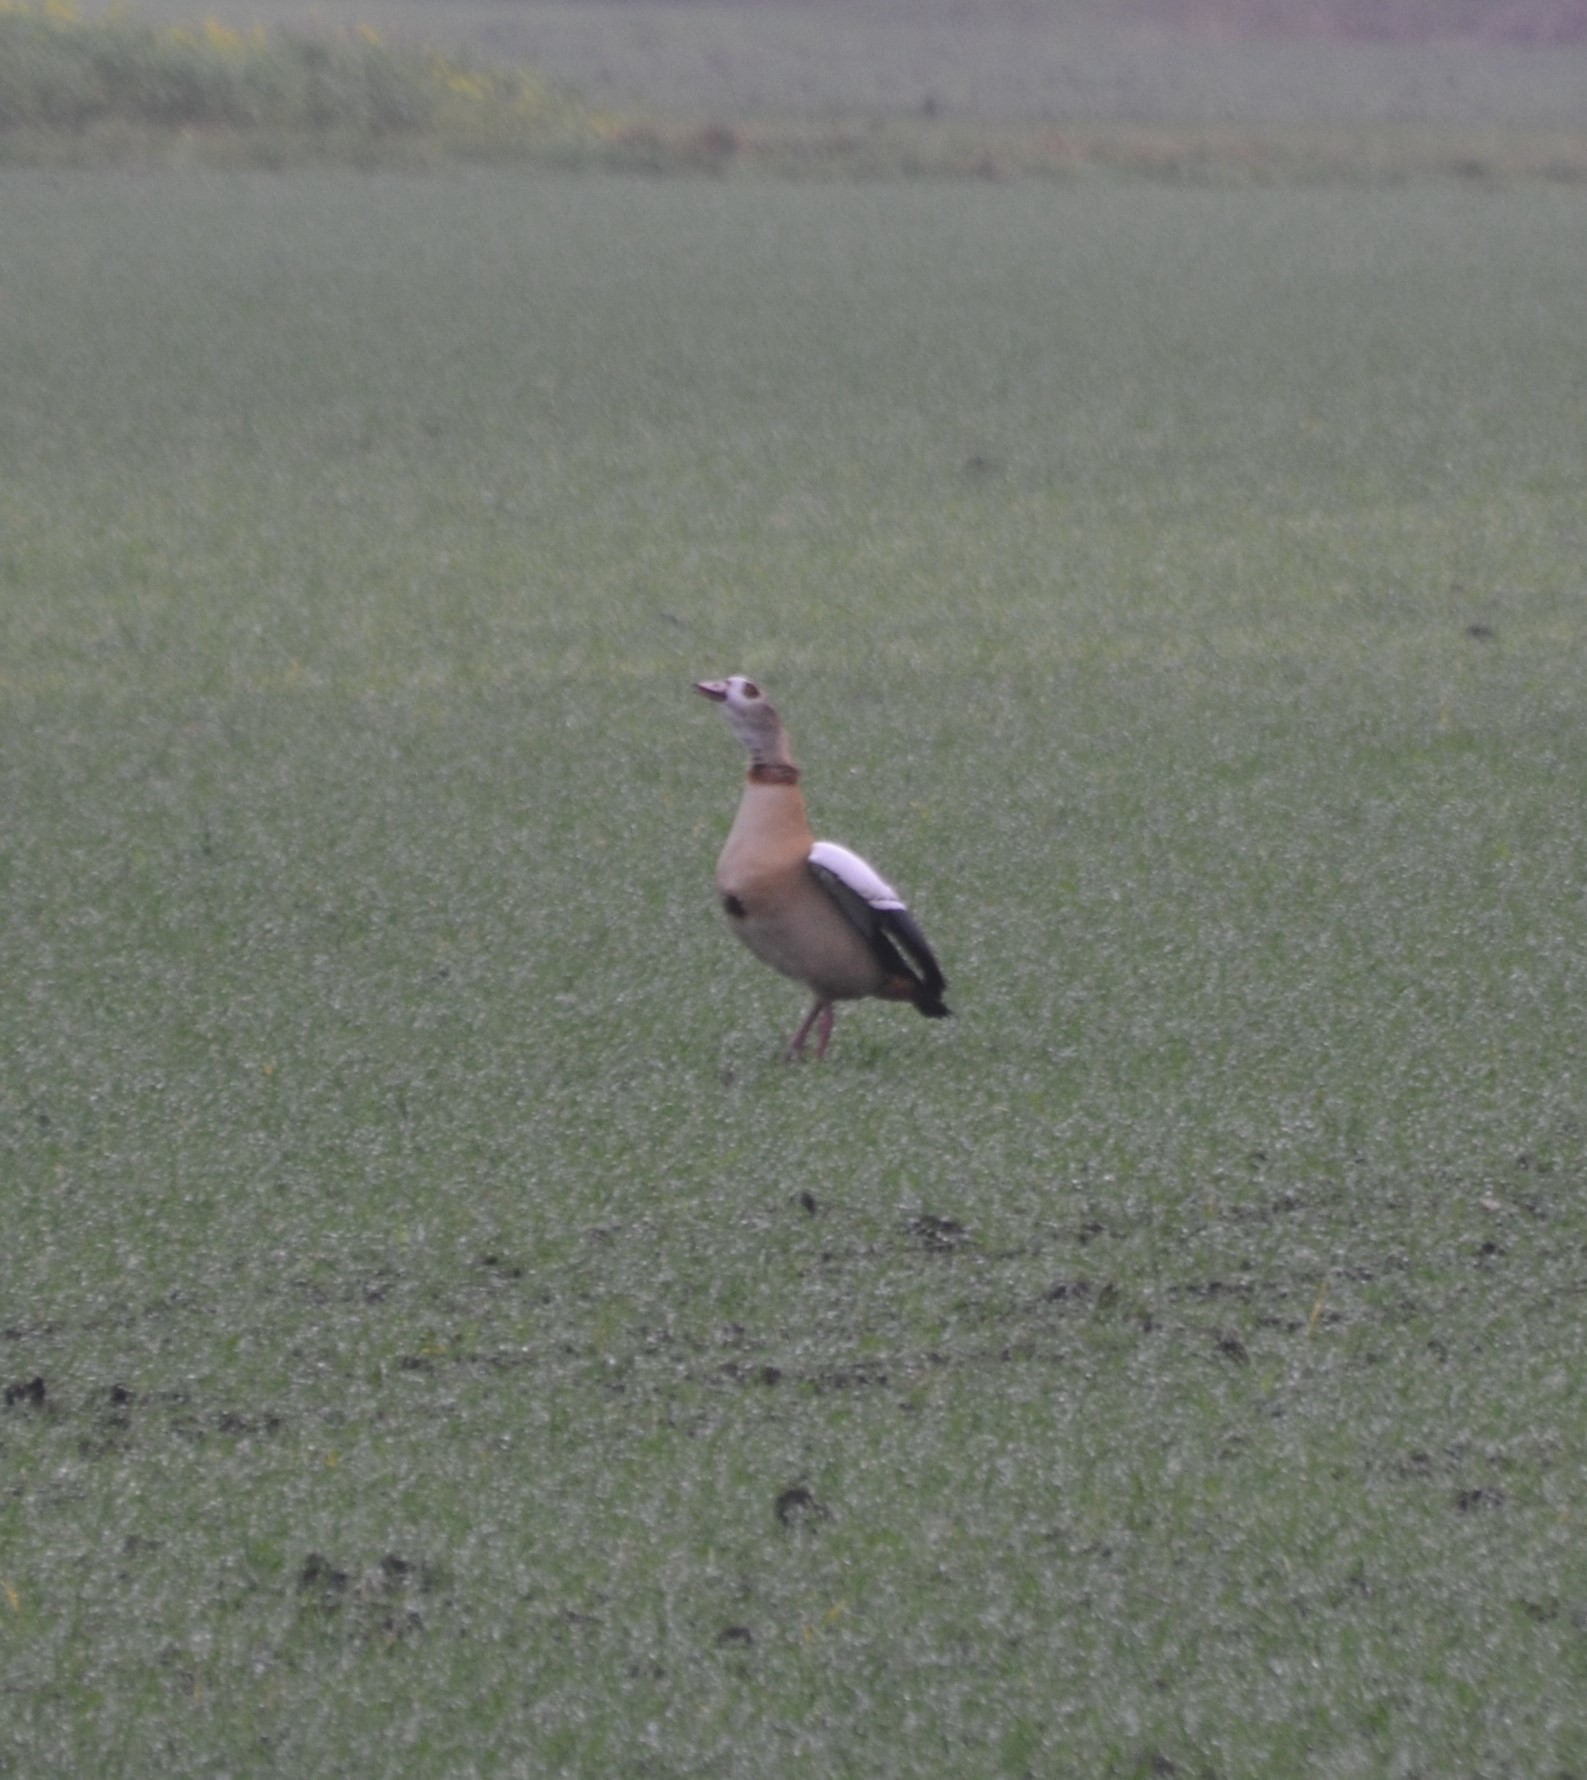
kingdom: Animalia
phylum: Chordata
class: Aves
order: Anseriformes
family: Anatidae
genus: Alopochen
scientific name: Alopochen aegyptiaca
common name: Egyptian goose
